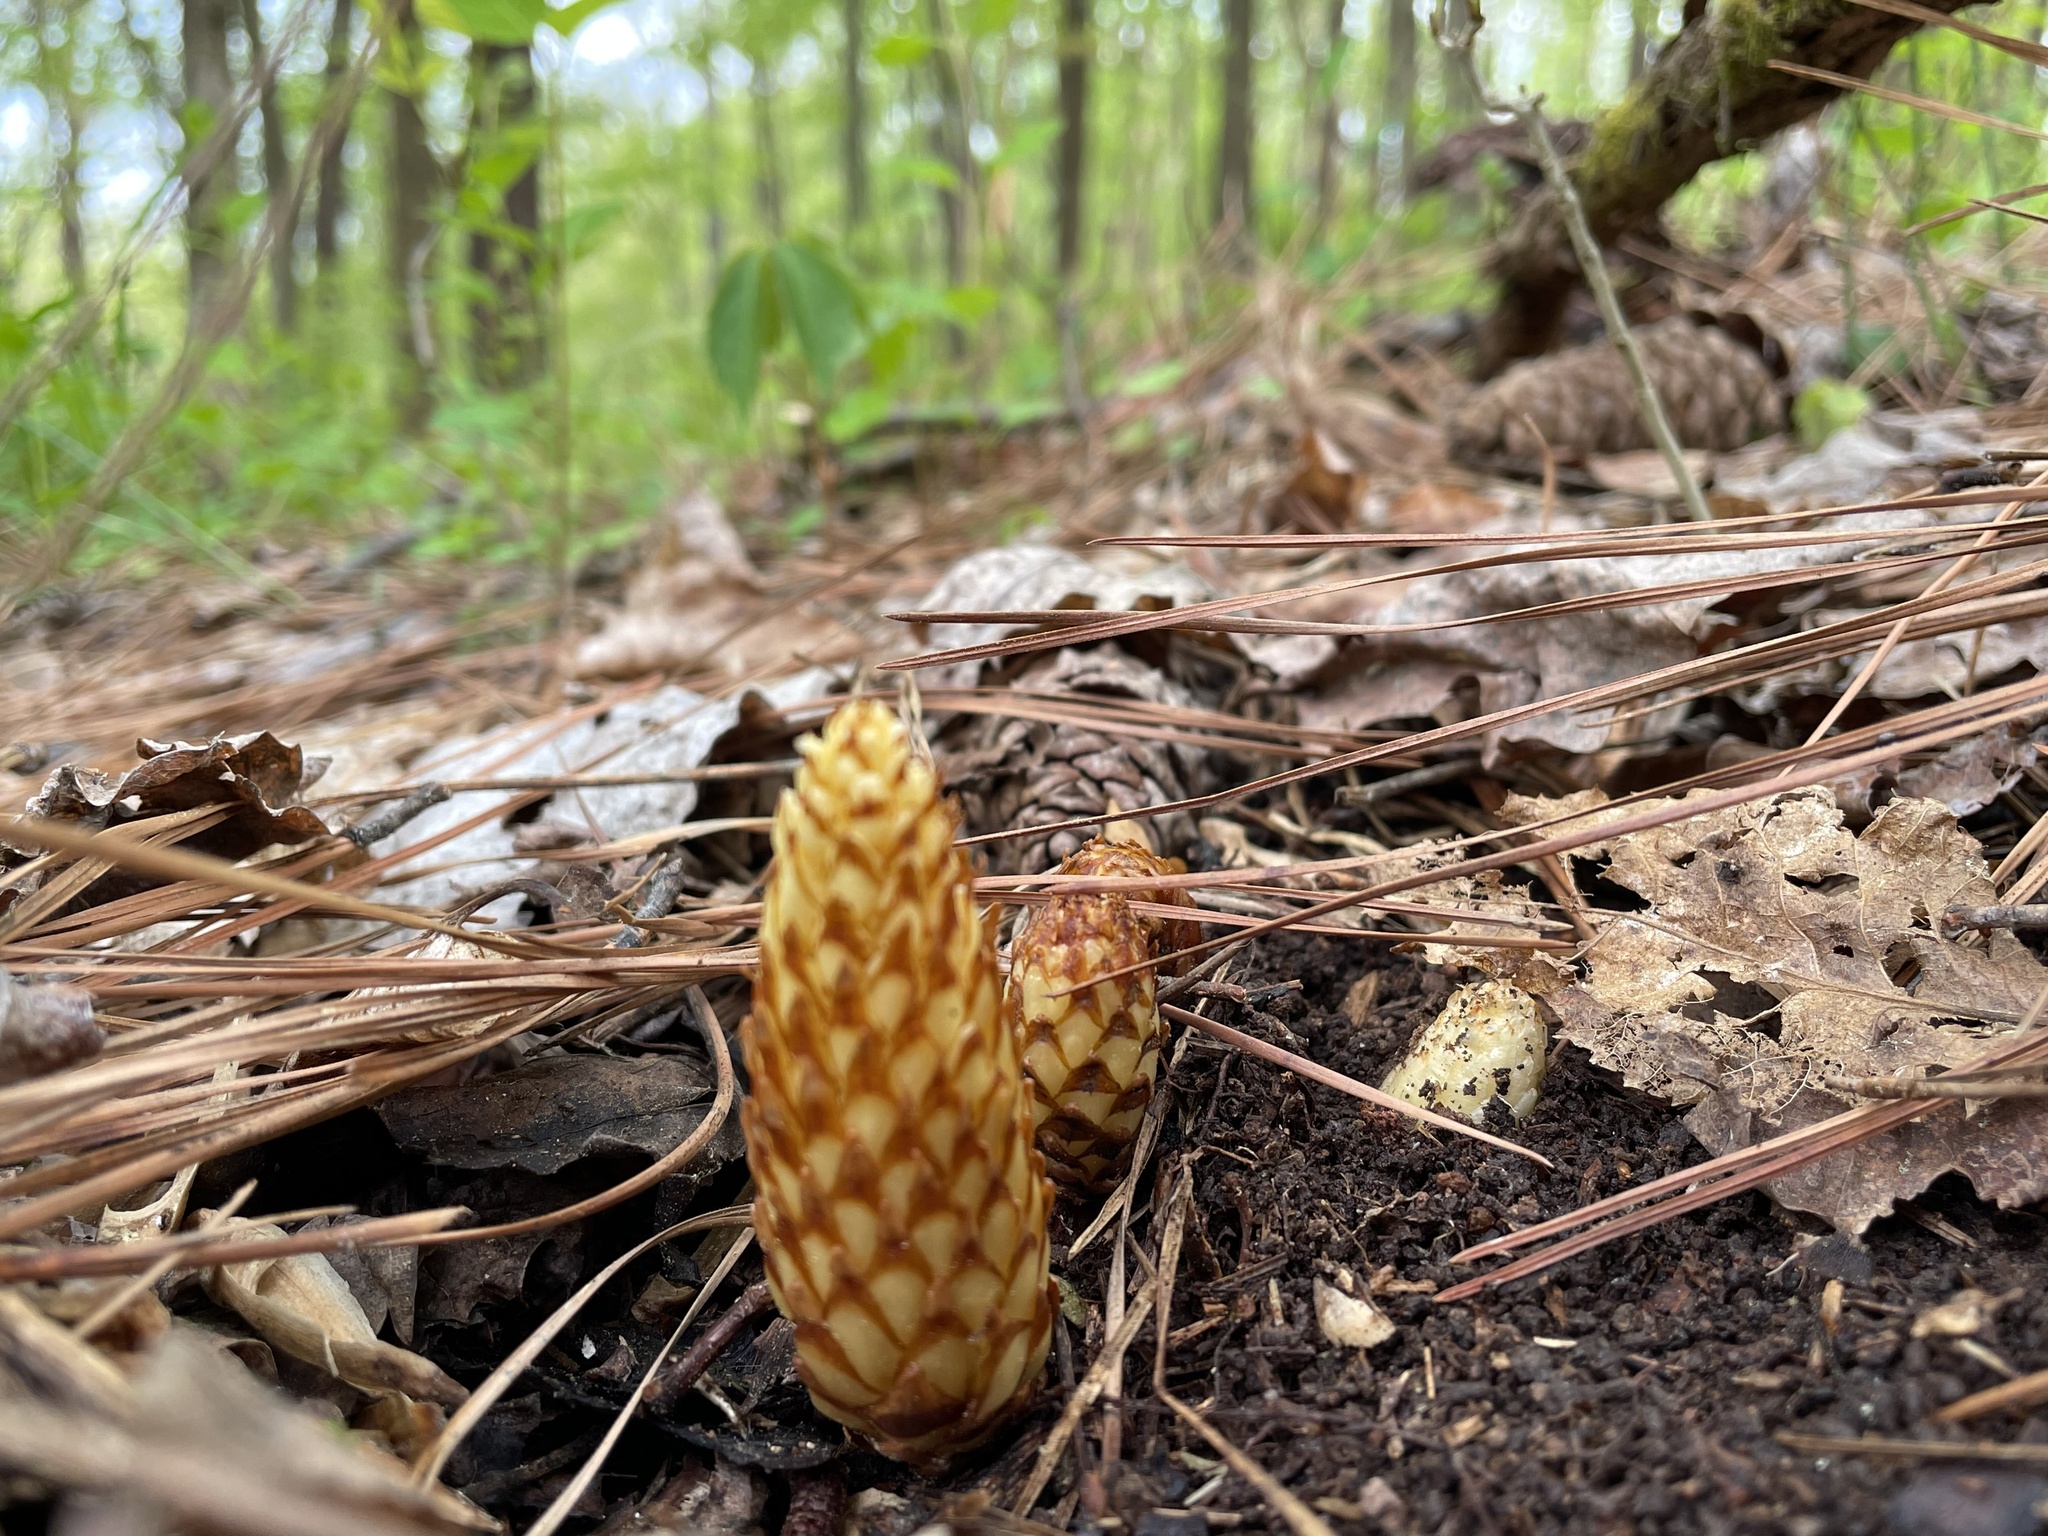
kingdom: Plantae
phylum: Tracheophyta
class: Magnoliopsida
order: Lamiales
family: Orobanchaceae
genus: Conopholis
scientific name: Conopholis americana
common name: American cancer-root
